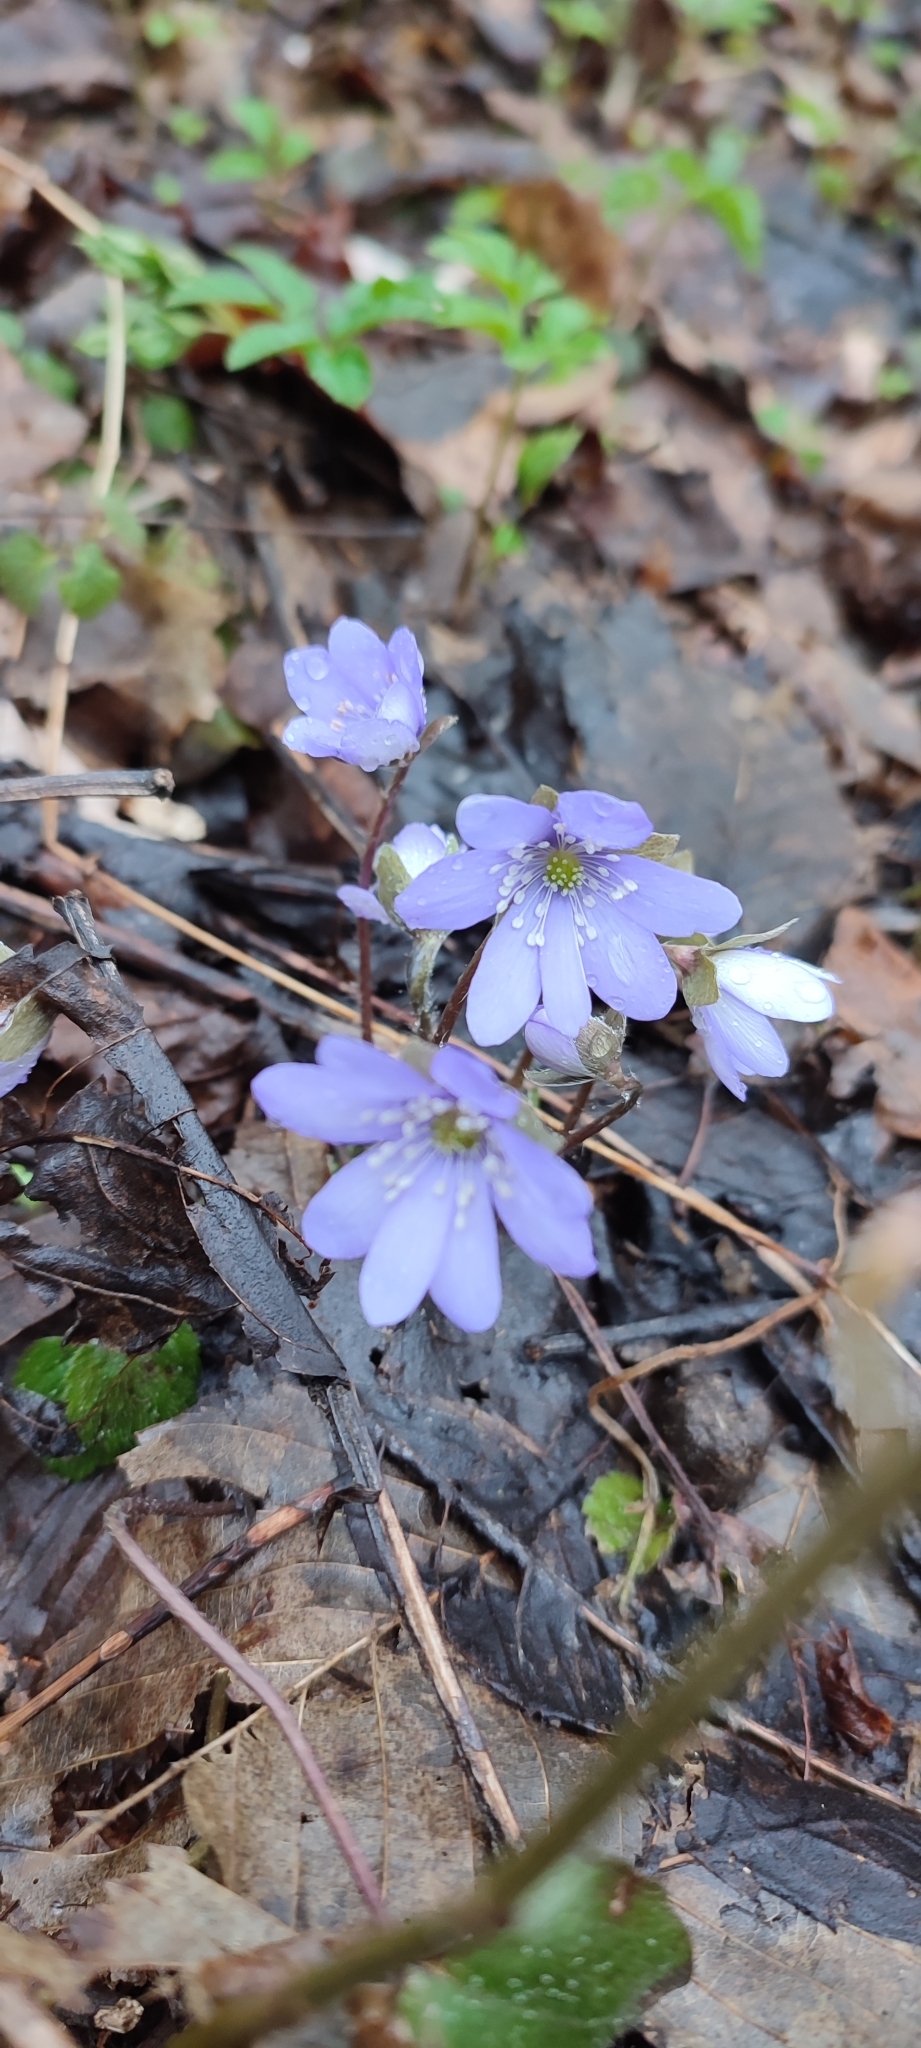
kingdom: Plantae
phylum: Tracheophyta
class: Magnoliopsida
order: Ranunculales
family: Ranunculaceae
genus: Hepatica
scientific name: Hepatica nobilis
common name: Liverleaf
